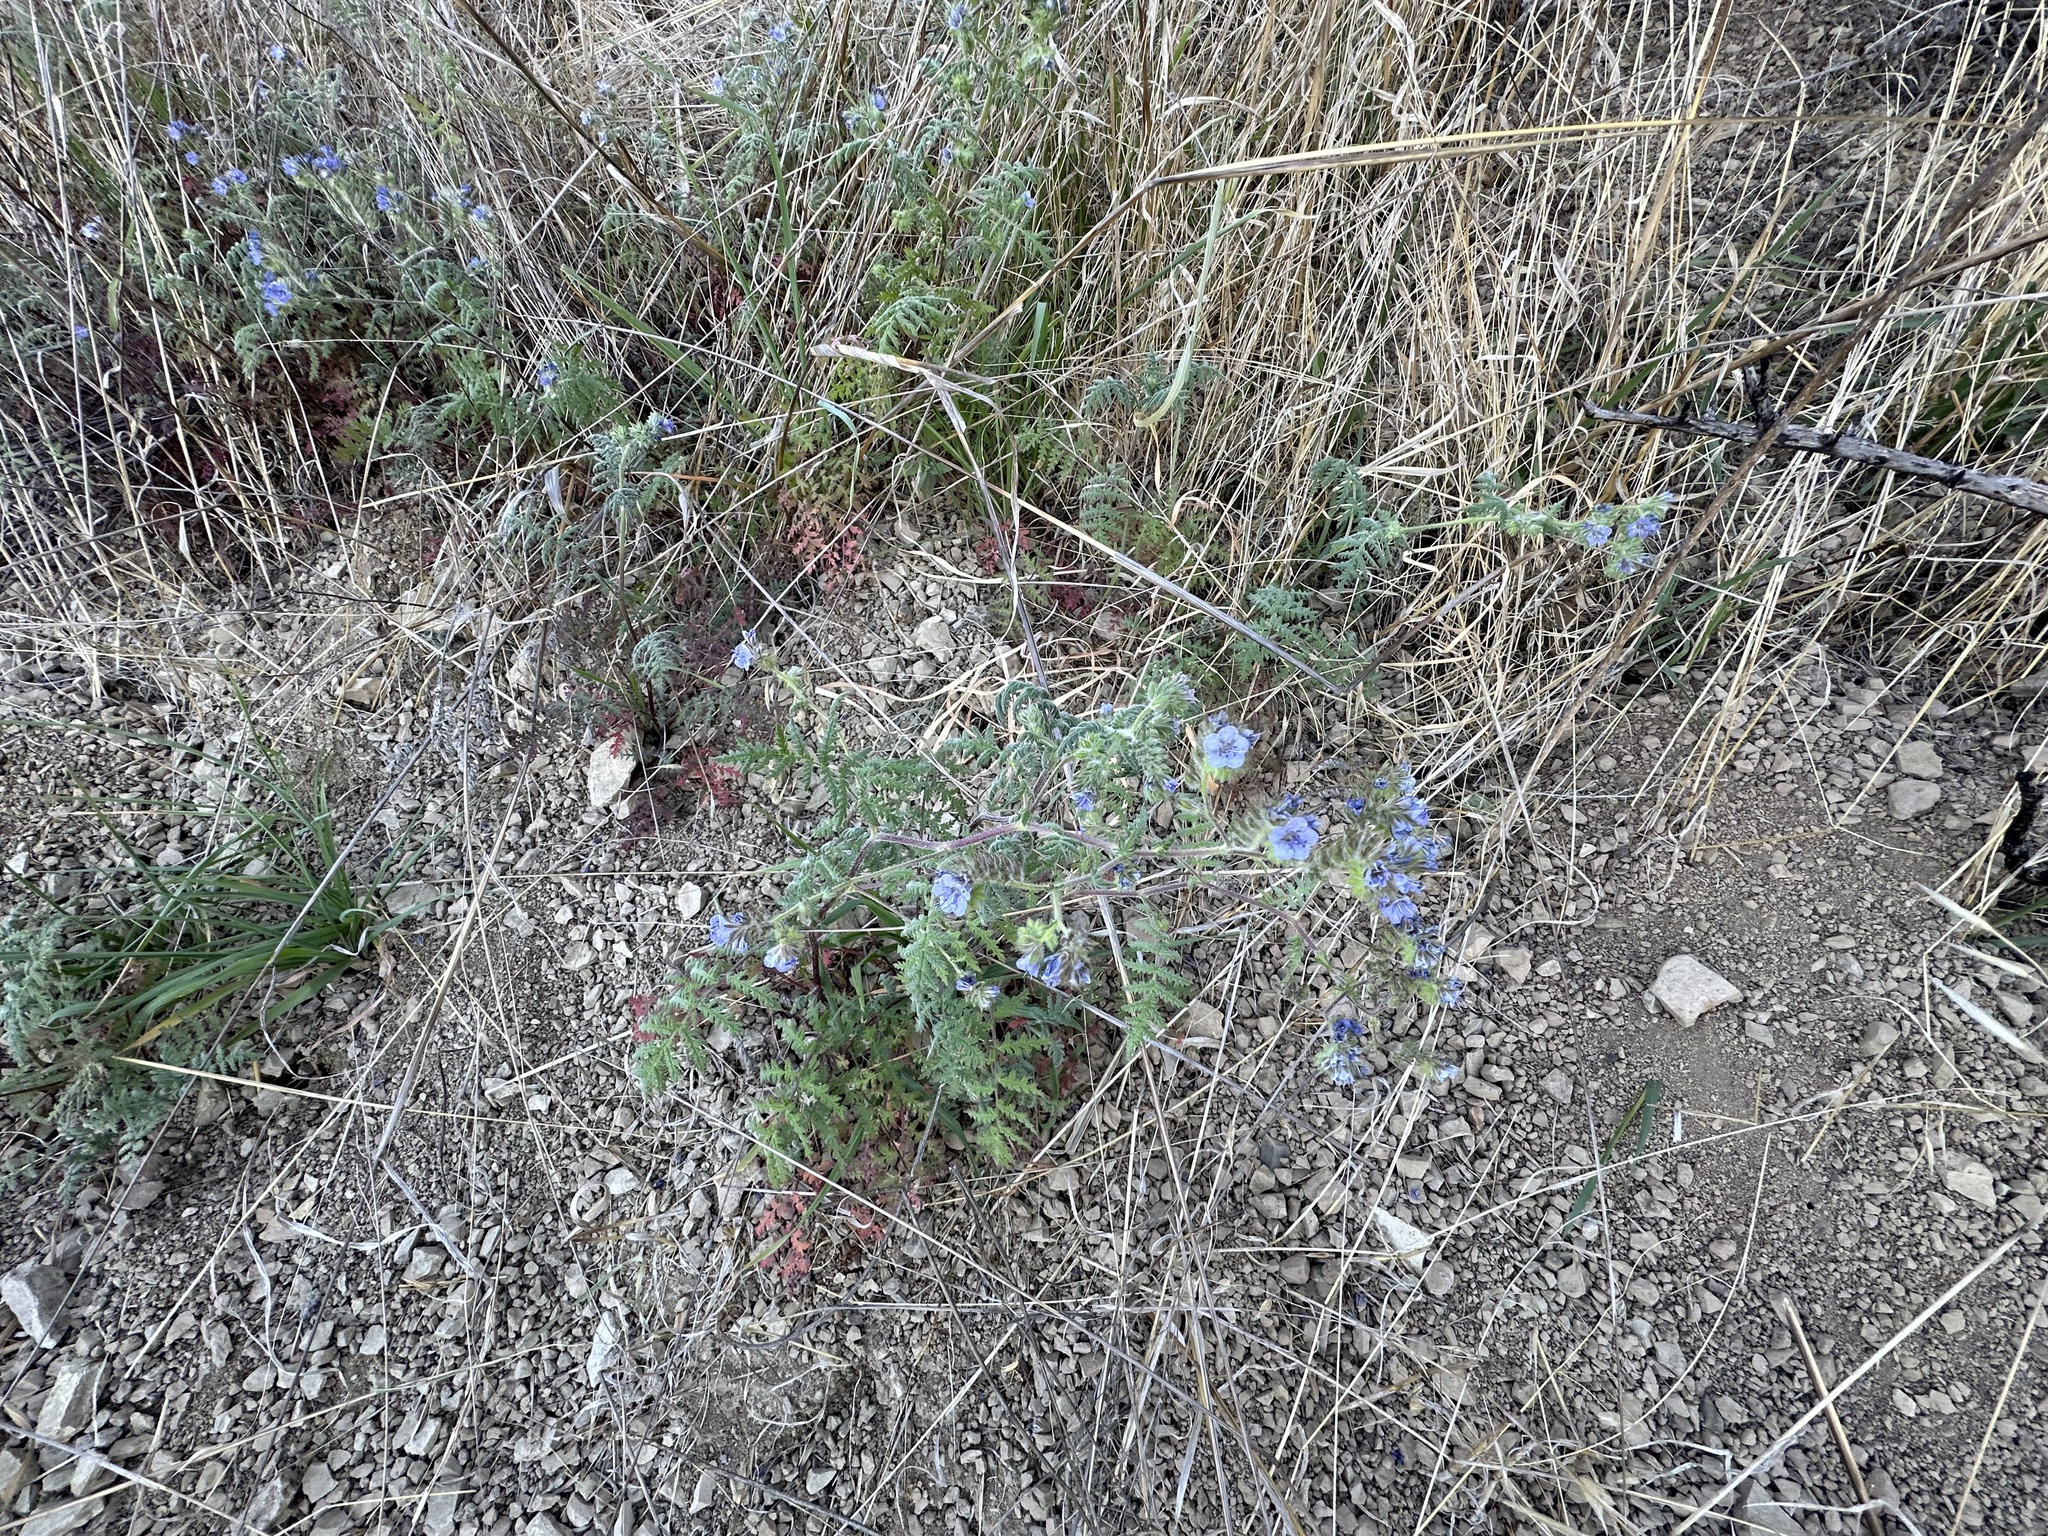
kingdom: Plantae
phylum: Tracheophyta
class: Magnoliopsida
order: Boraginales
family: Hydrophyllaceae
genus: Phacelia
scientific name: Phacelia distans
